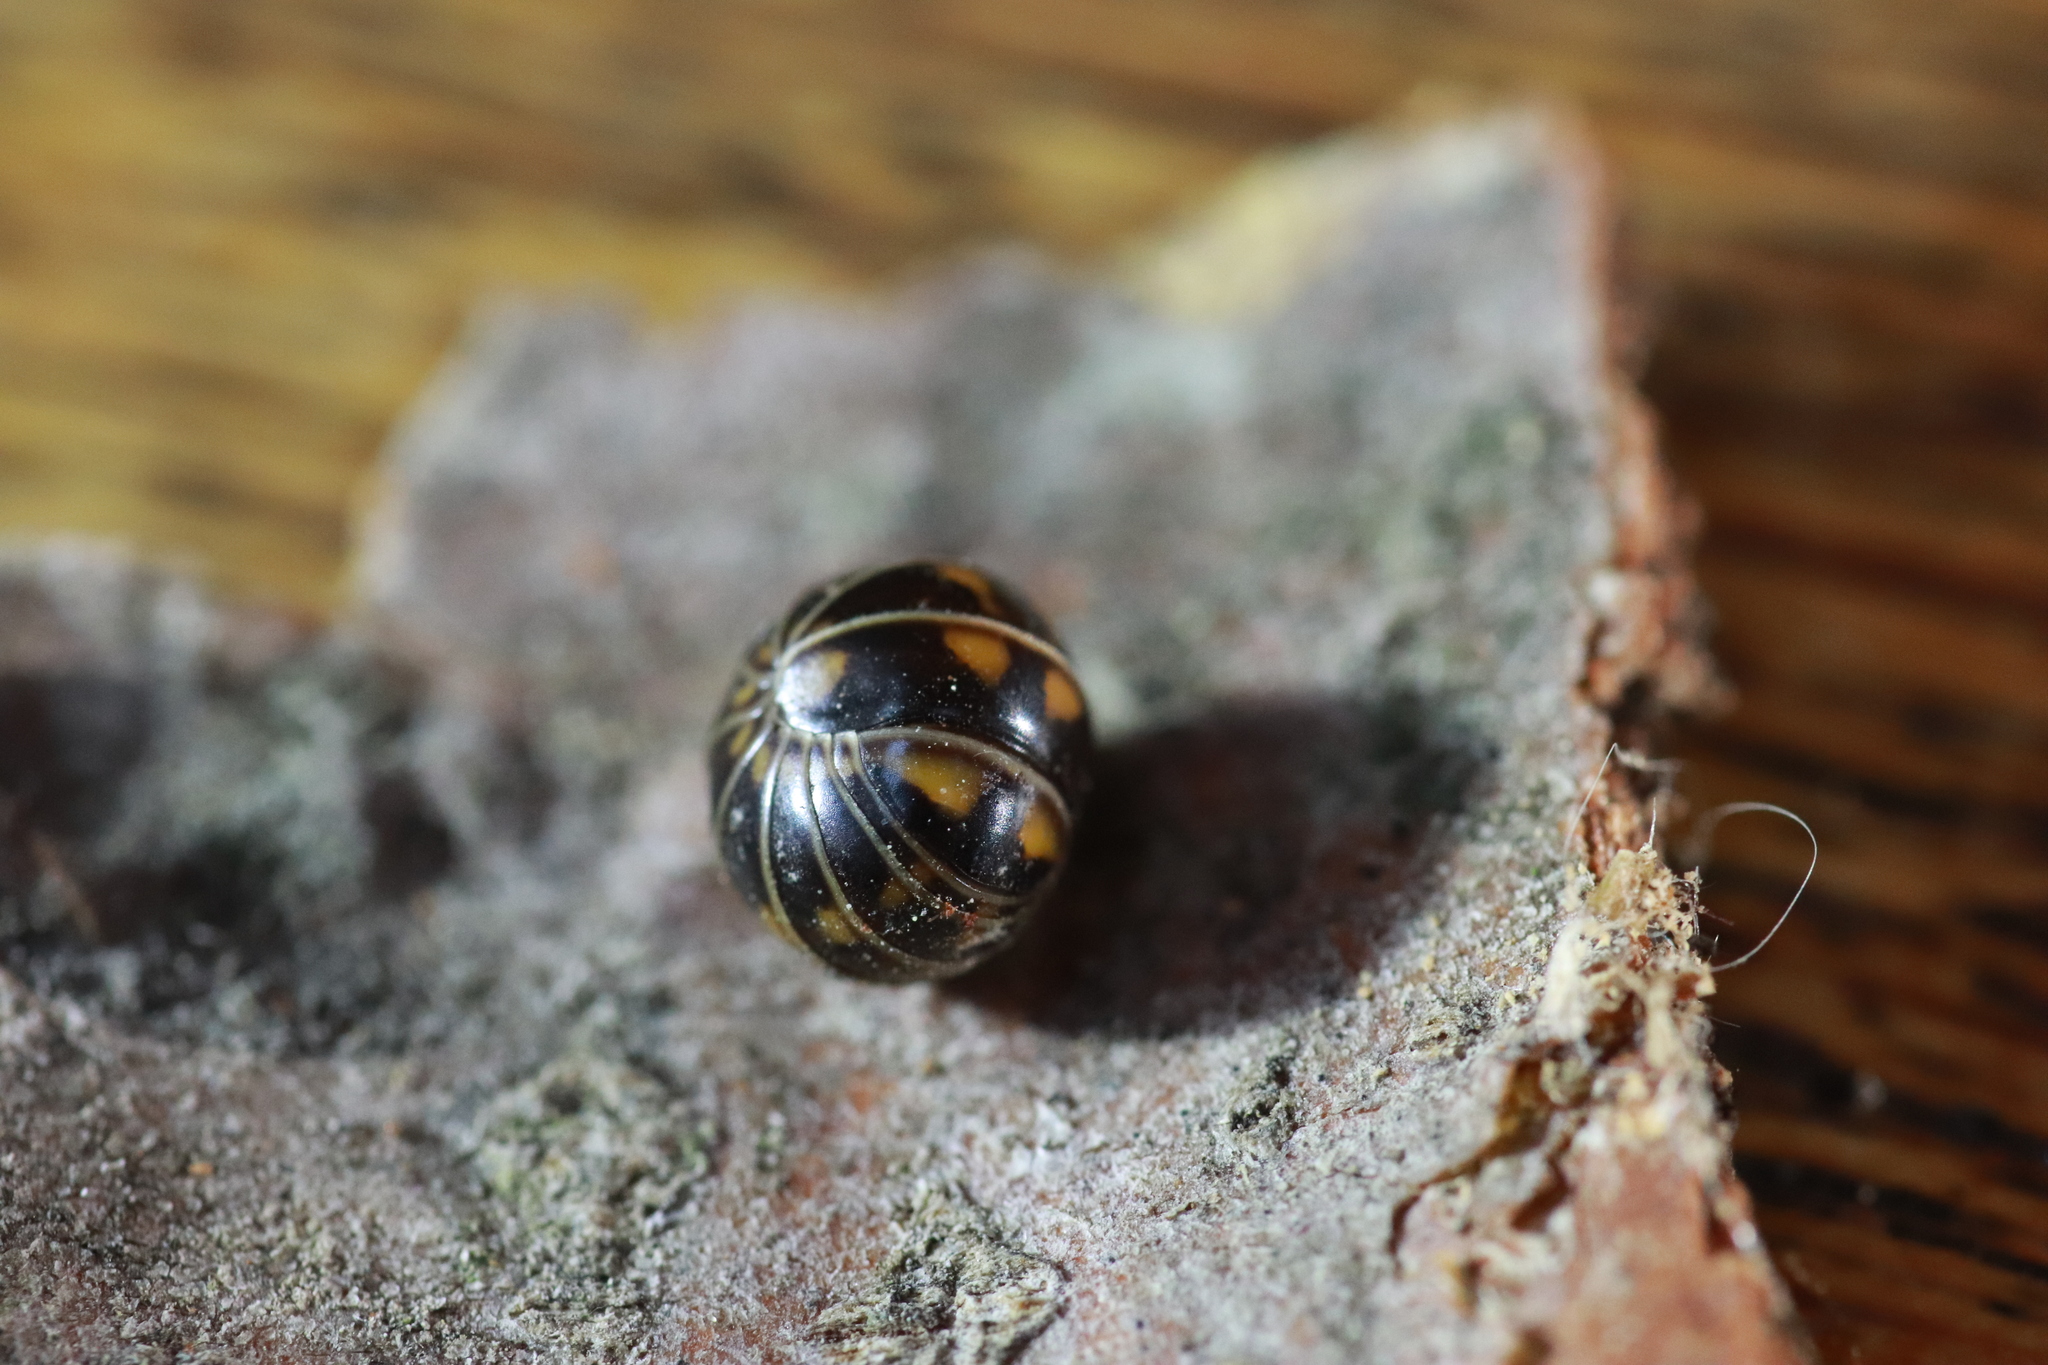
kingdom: Animalia
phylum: Arthropoda
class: Diplopoda
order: Glomerida
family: Glomeridae
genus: Glomeris
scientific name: Glomeris helvetica
